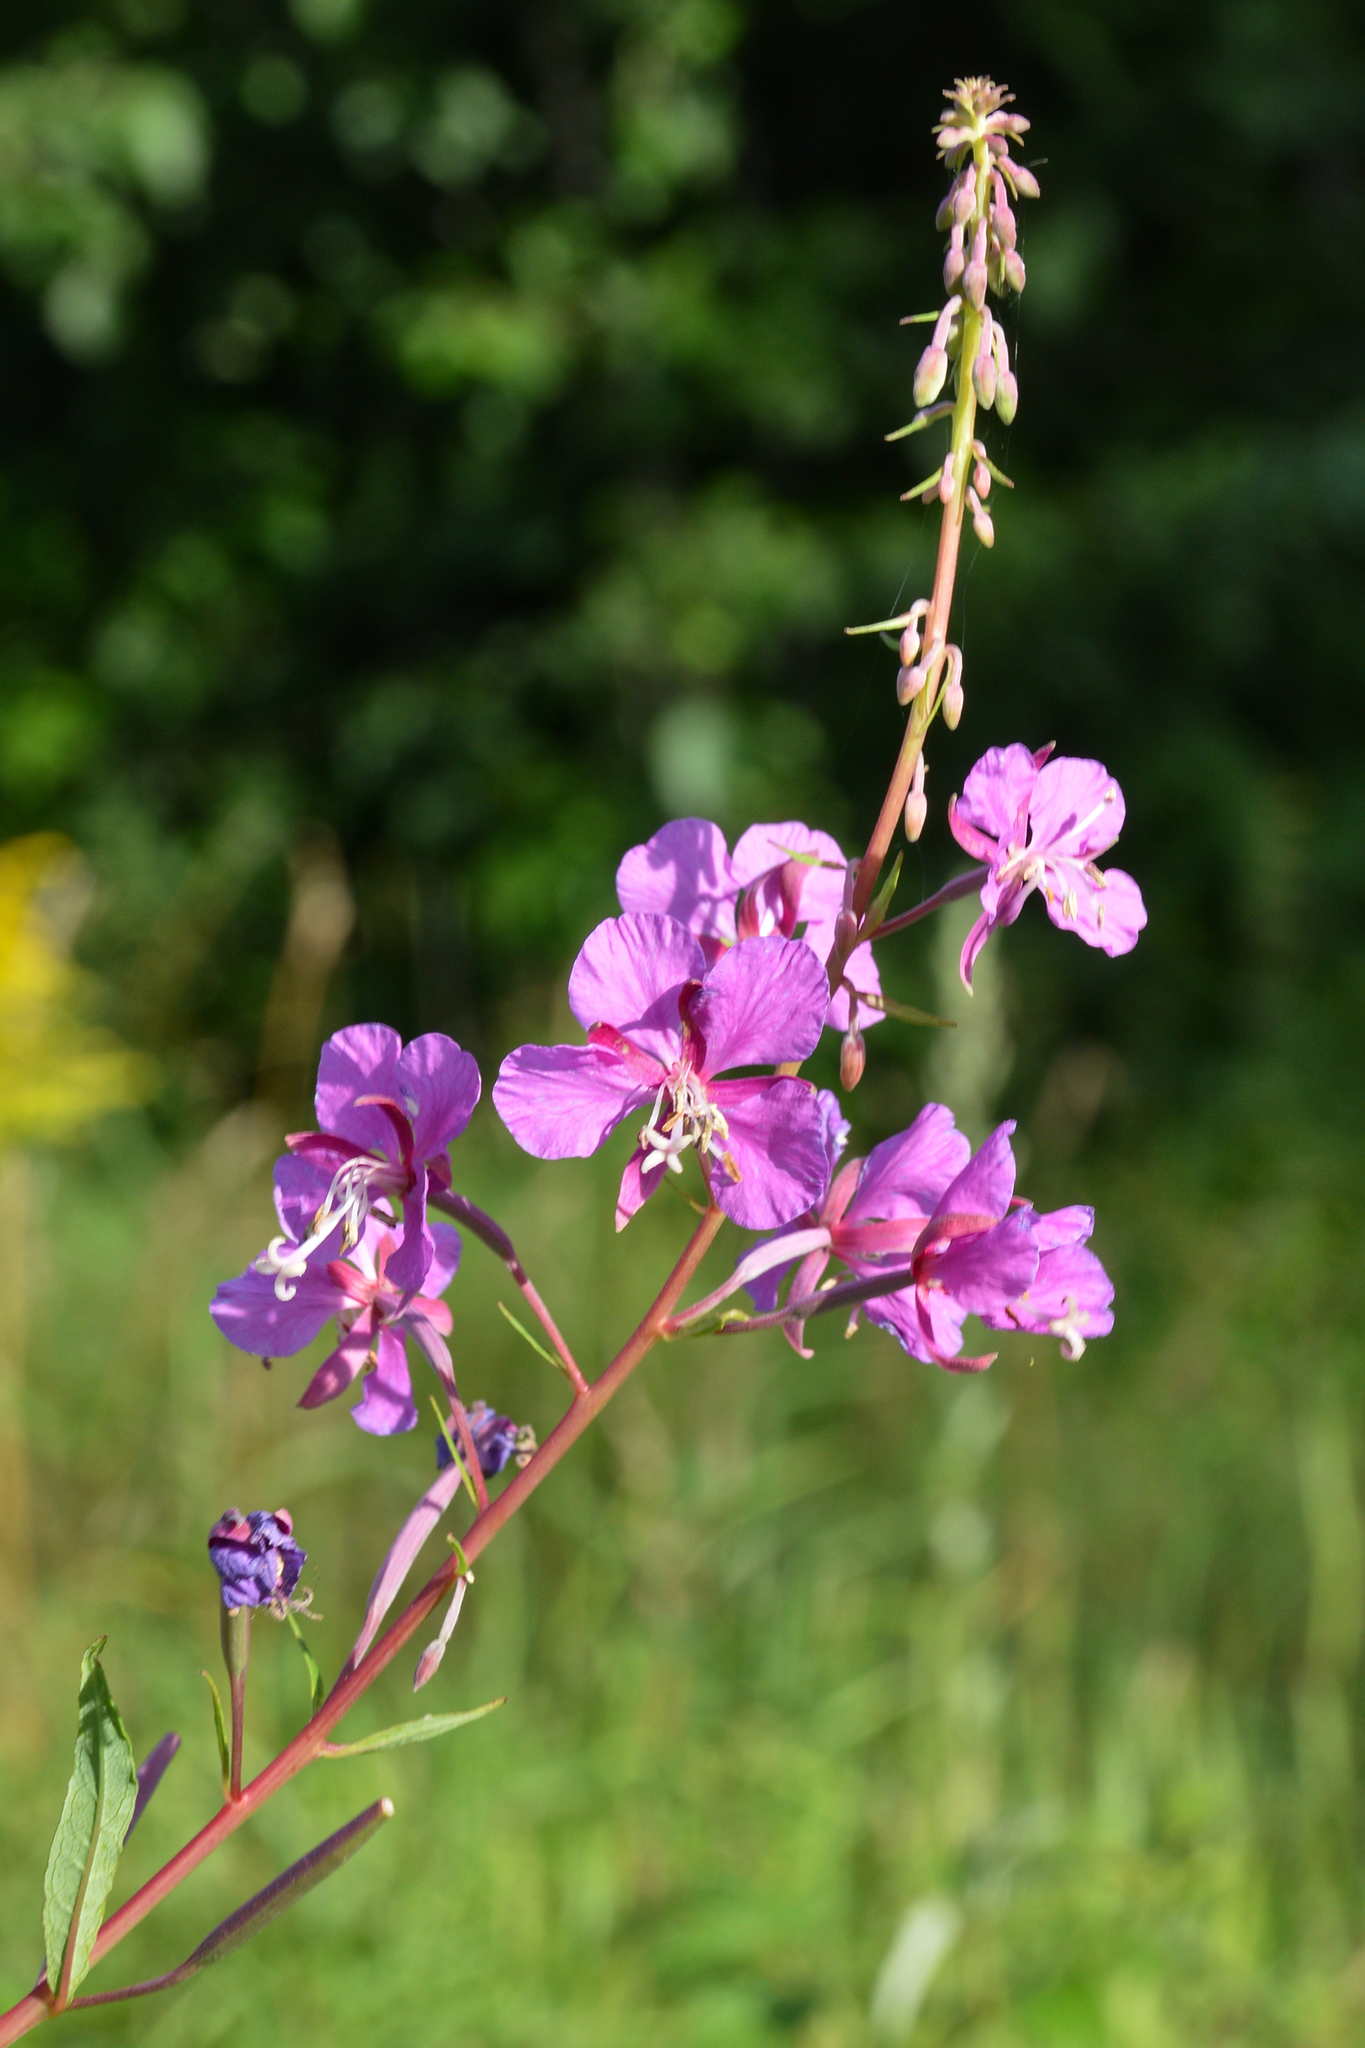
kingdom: Plantae
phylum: Tracheophyta
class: Magnoliopsida
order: Myrtales
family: Onagraceae
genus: Chamaenerion
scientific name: Chamaenerion angustifolium
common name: Fireweed
